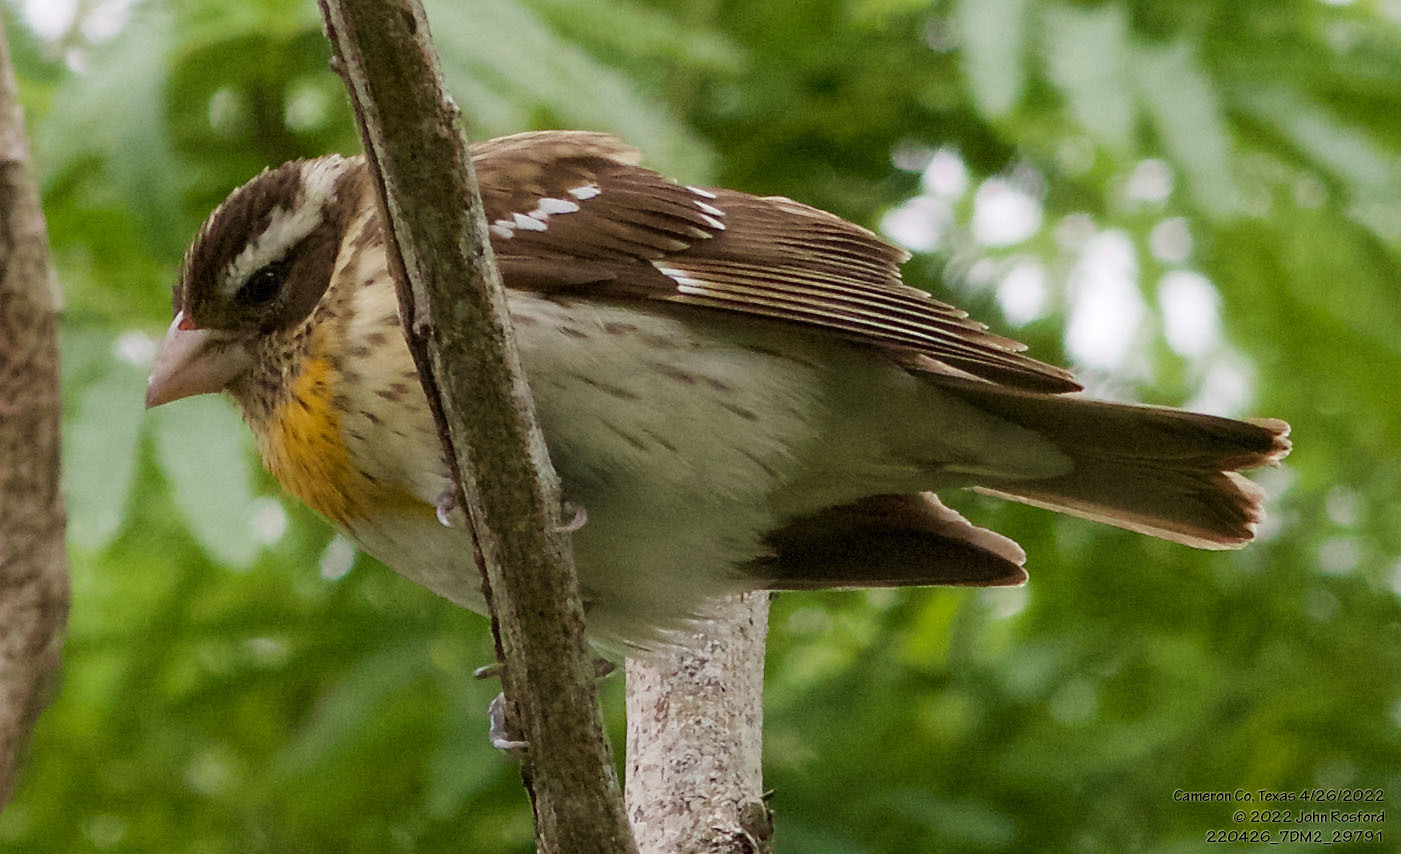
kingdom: Animalia
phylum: Chordata
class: Aves
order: Passeriformes
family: Cardinalidae
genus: Pheucticus
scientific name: Pheucticus ludovicianus
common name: Rose-breasted grosbeak
